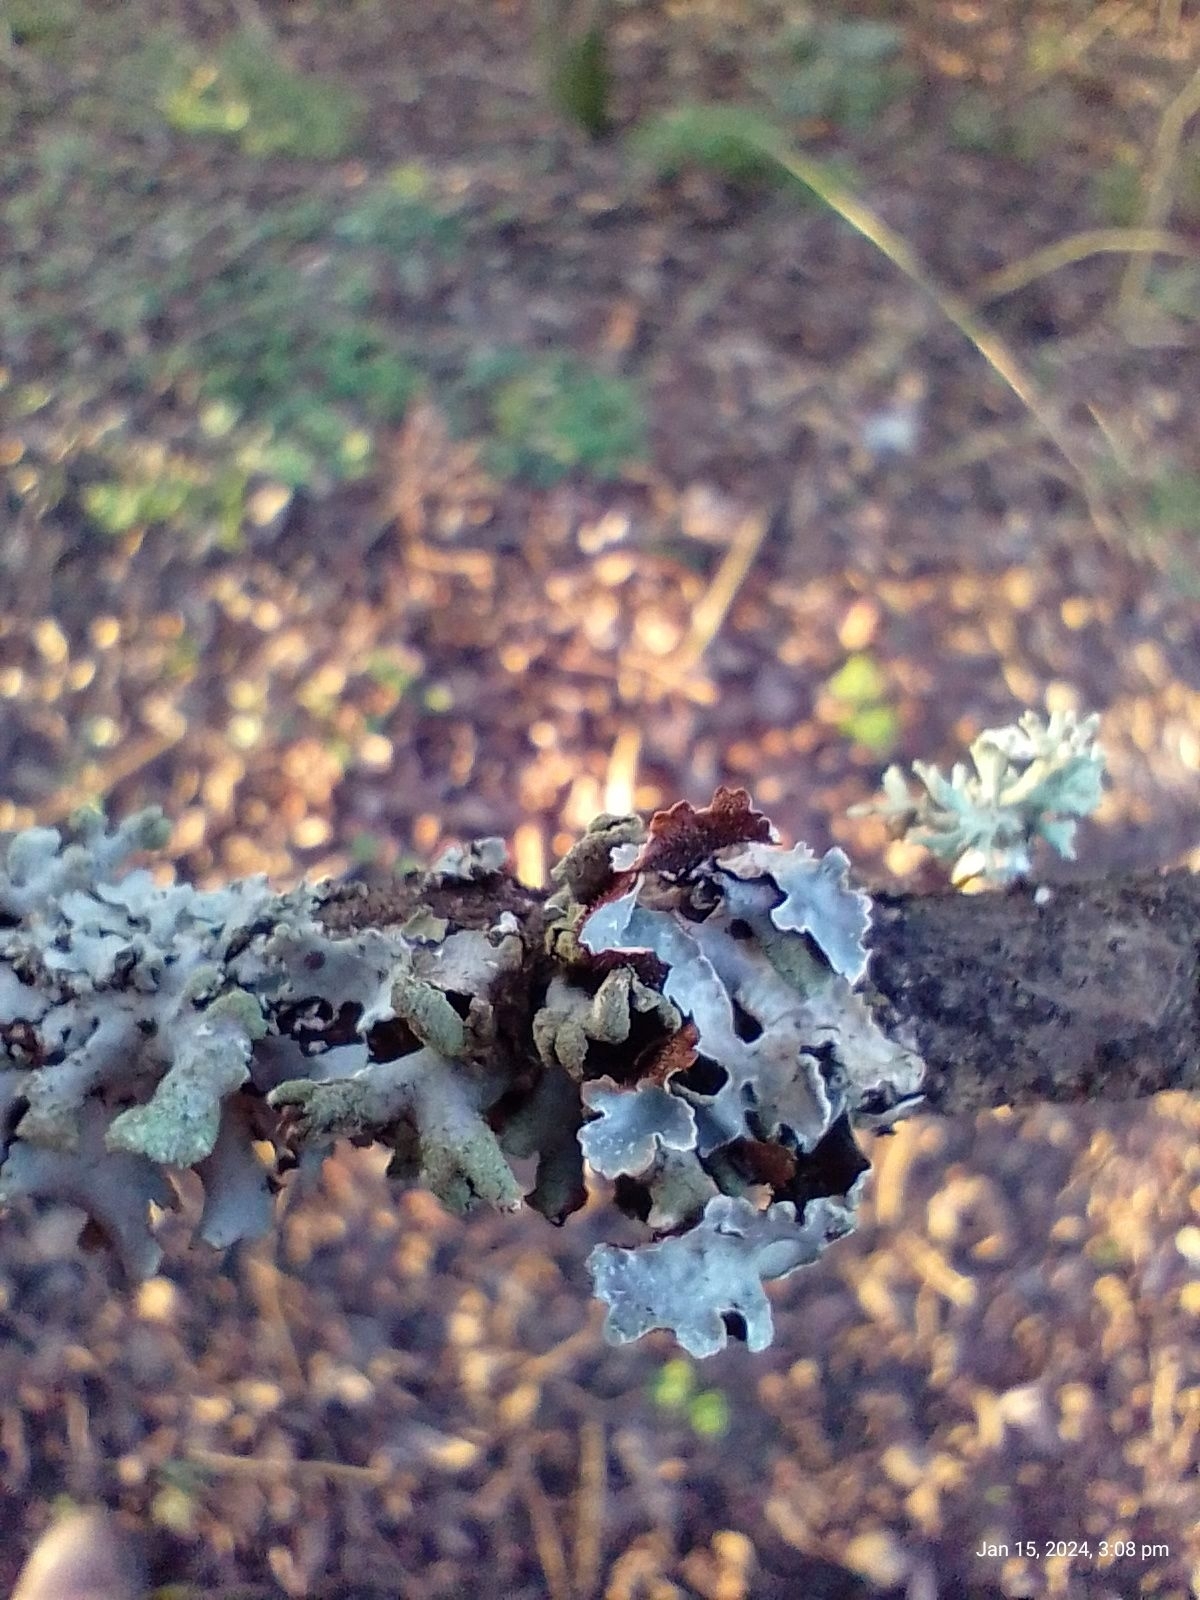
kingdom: Fungi
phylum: Ascomycota
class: Lecanoromycetes
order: Lecanorales
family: Parmeliaceae
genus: Hypotrachyna
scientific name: Hypotrachyna revoluta
